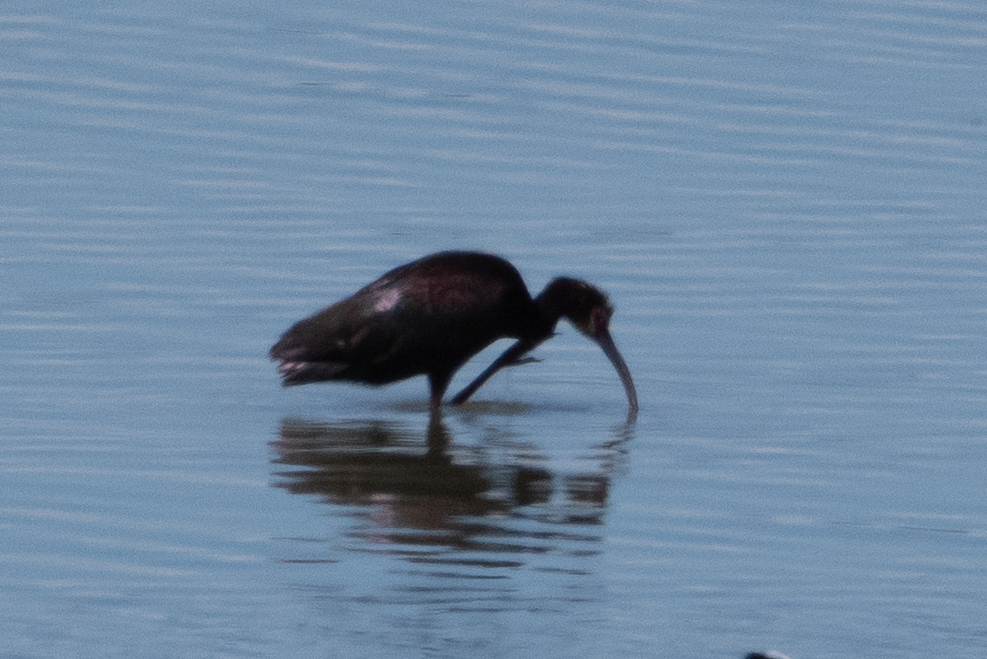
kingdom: Animalia
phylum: Chordata
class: Aves
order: Pelecaniformes
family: Threskiornithidae
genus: Plegadis
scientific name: Plegadis chihi
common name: White-faced ibis
